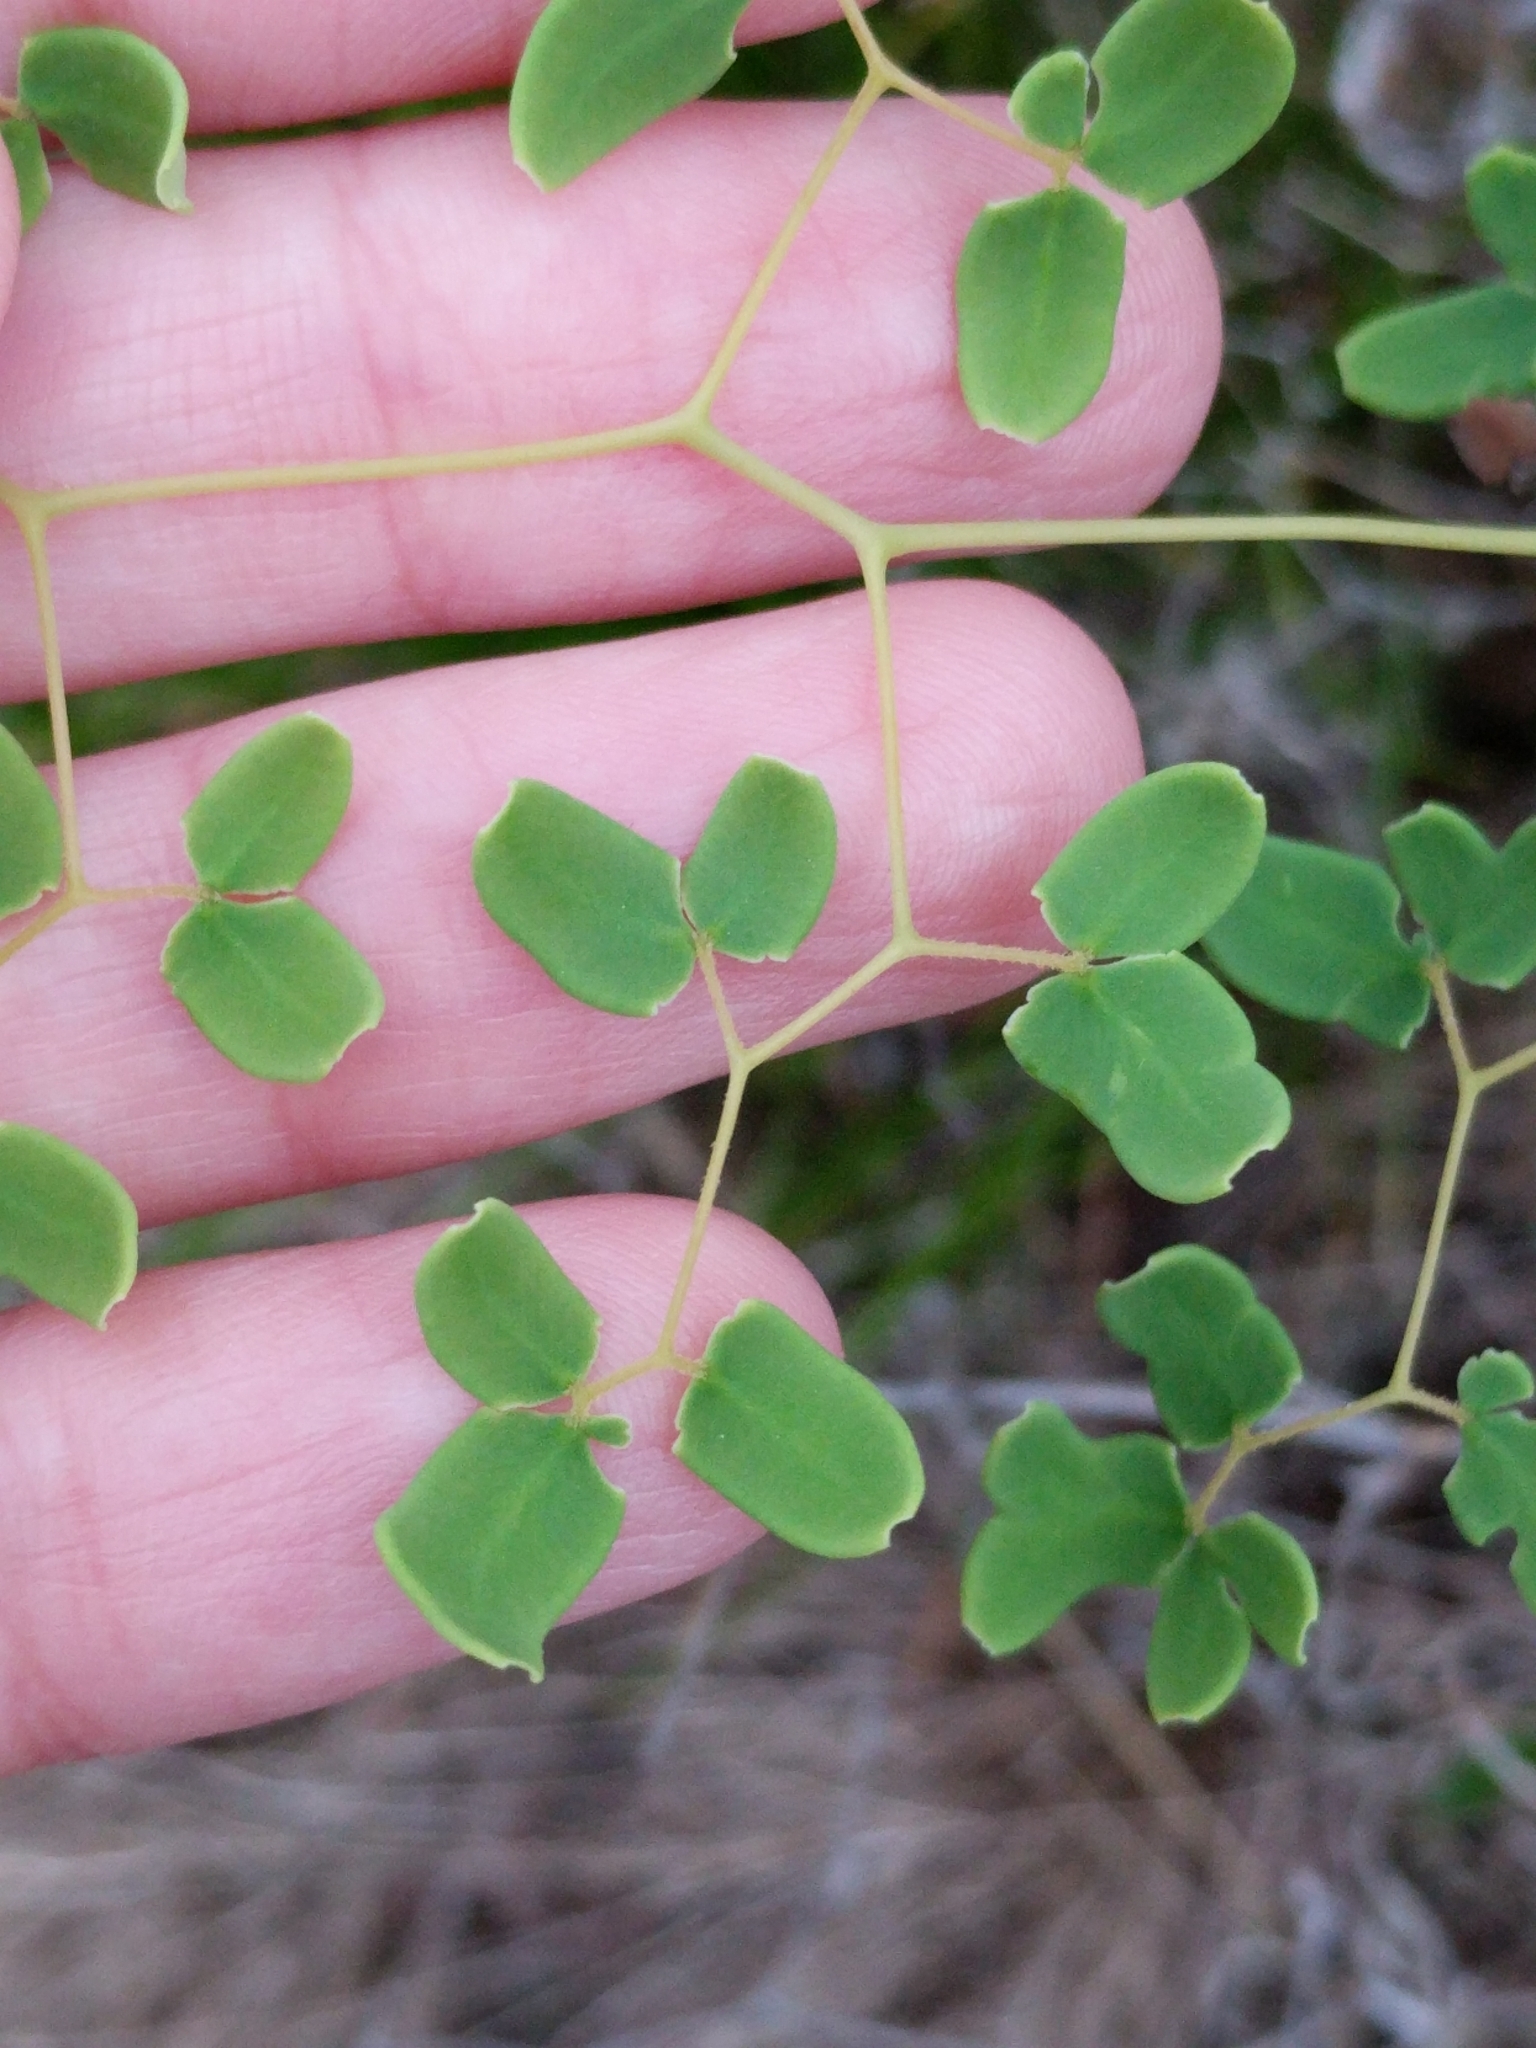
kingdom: Plantae
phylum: Tracheophyta
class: Polypodiopsida
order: Polypodiales
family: Pteridaceae
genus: Pellaea
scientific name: Pellaea ovata
